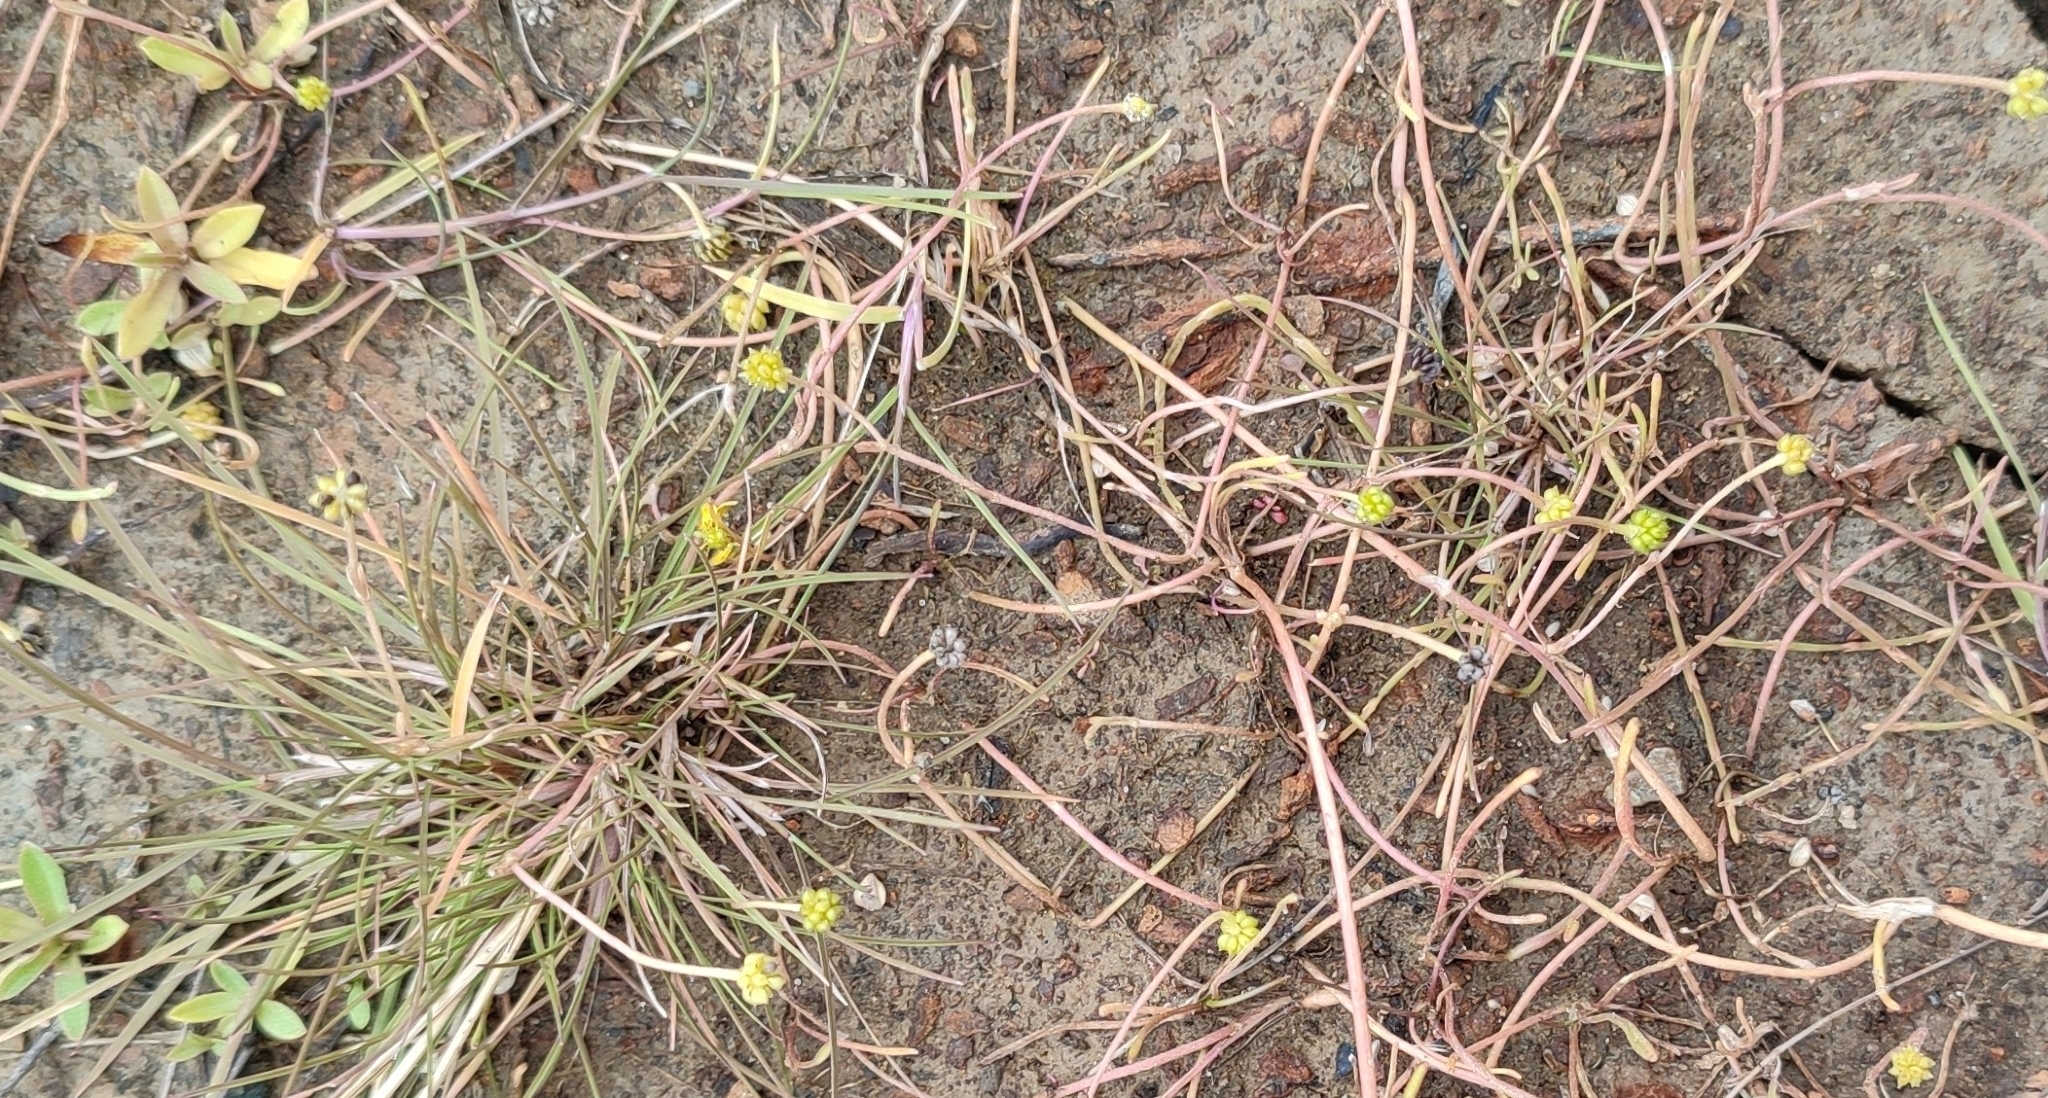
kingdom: Plantae
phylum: Tracheophyta
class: Magnoliopsida
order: Ranunculales
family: Ranunculaceae
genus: Ranunculus
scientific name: Ranunculus reptans
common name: Creeping spearwort
